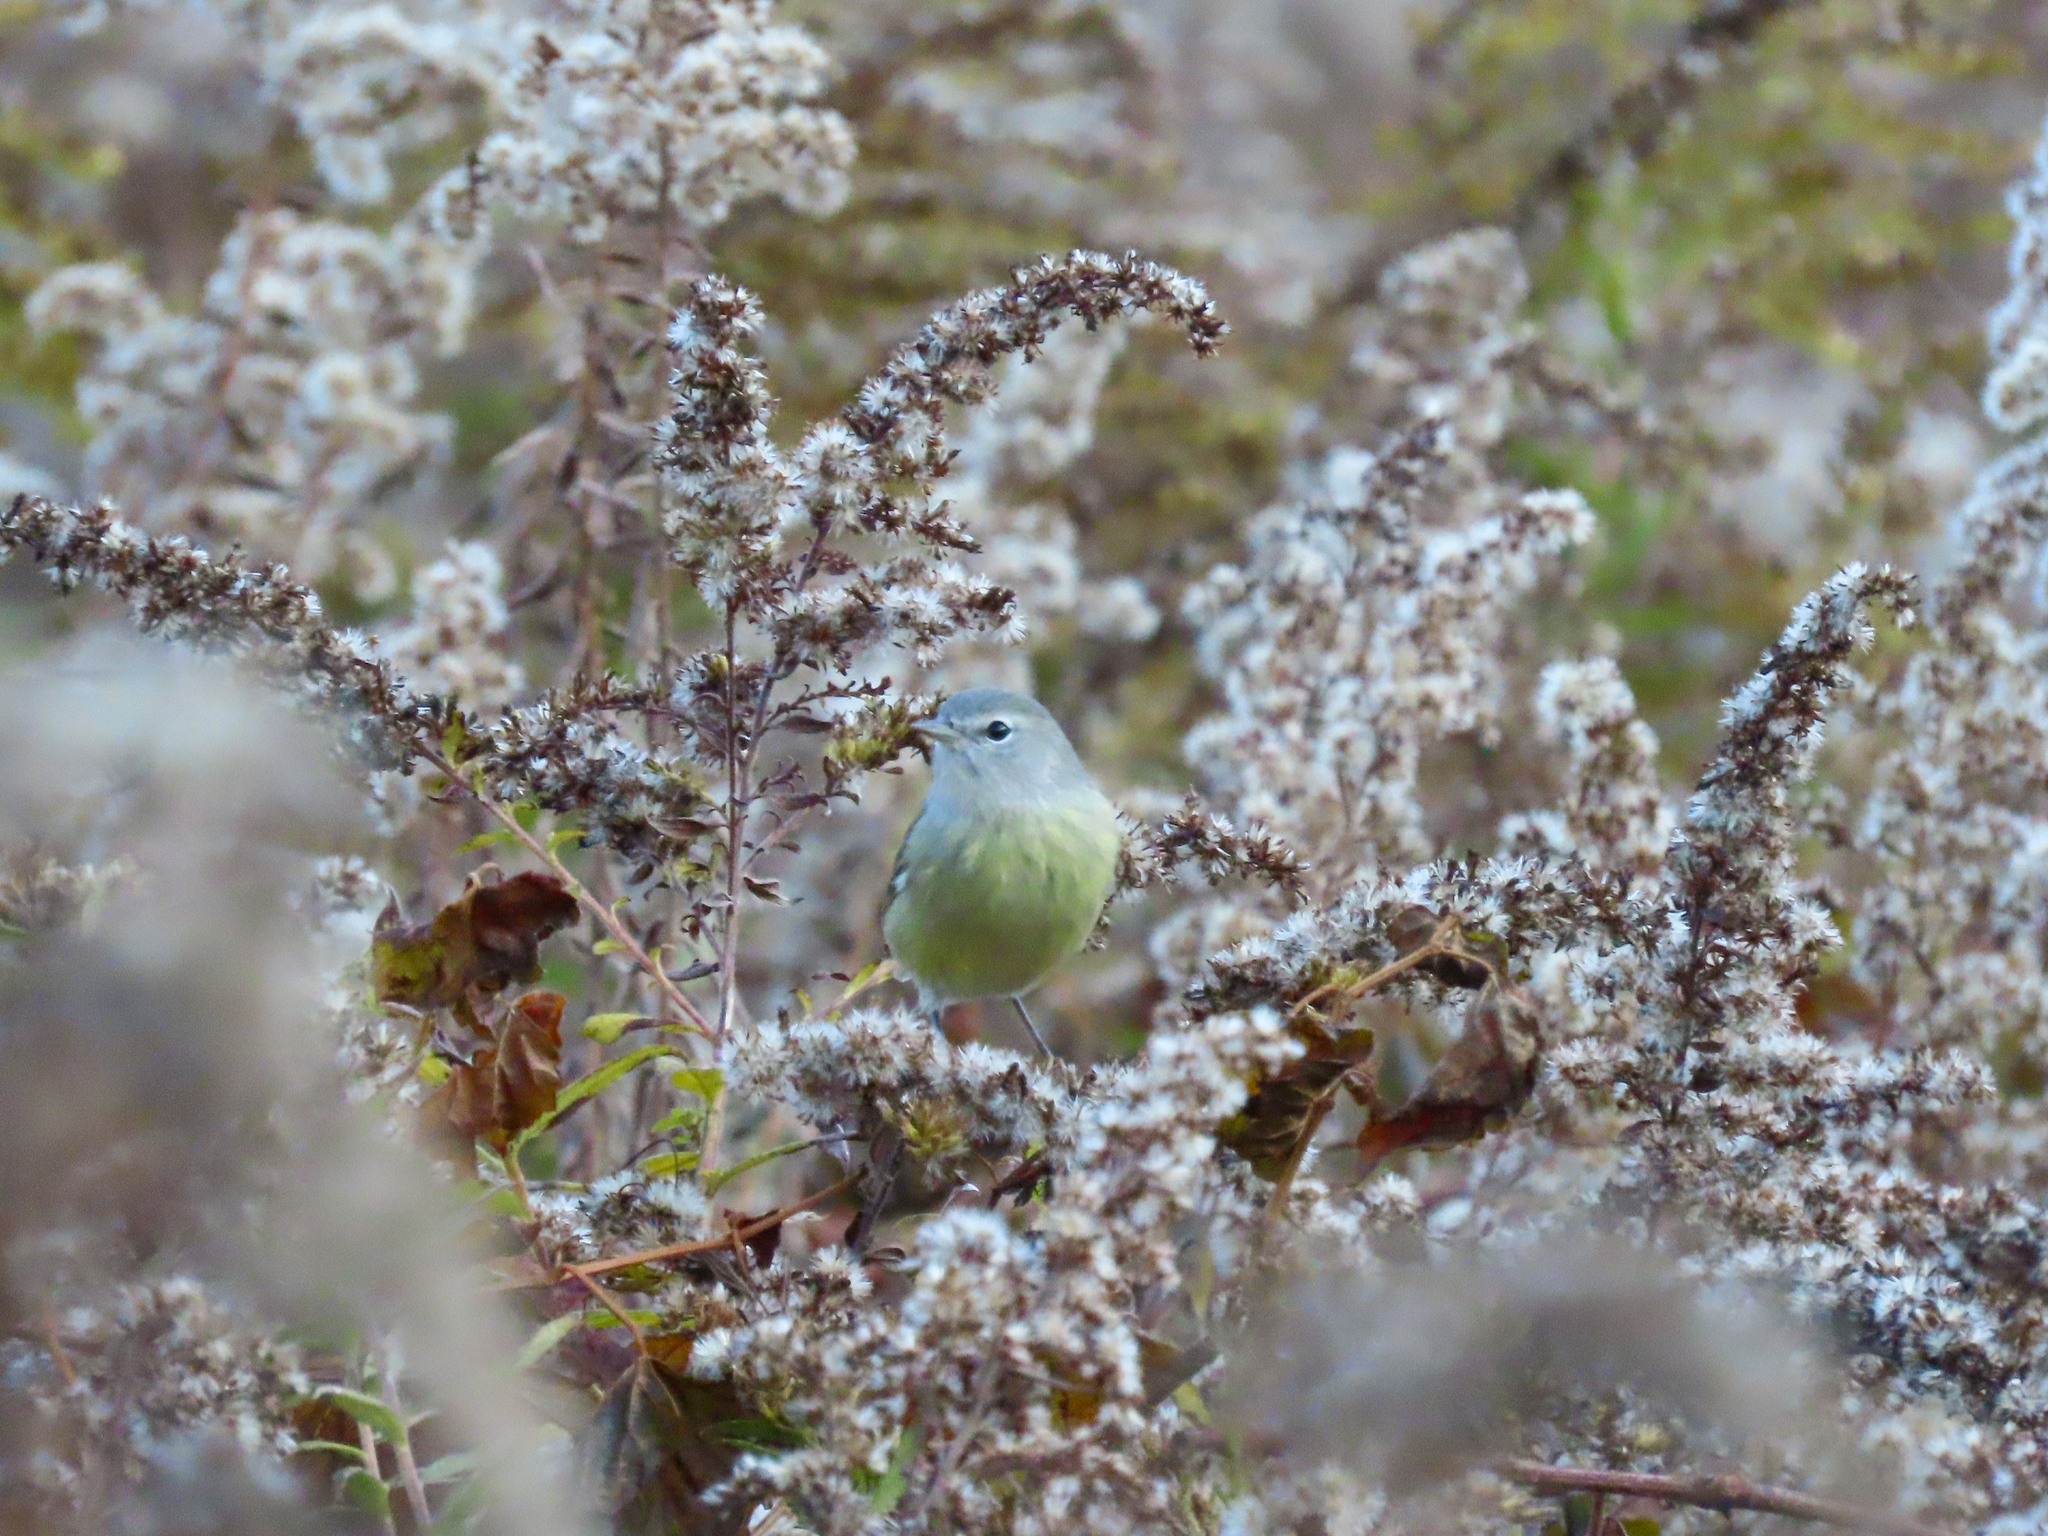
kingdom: Animalia
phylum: Chordata
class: Aves
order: Passeriformes
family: Parulidae
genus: Leiothlypis
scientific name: Leiothlypis celata
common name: Orange-crowned warbler
